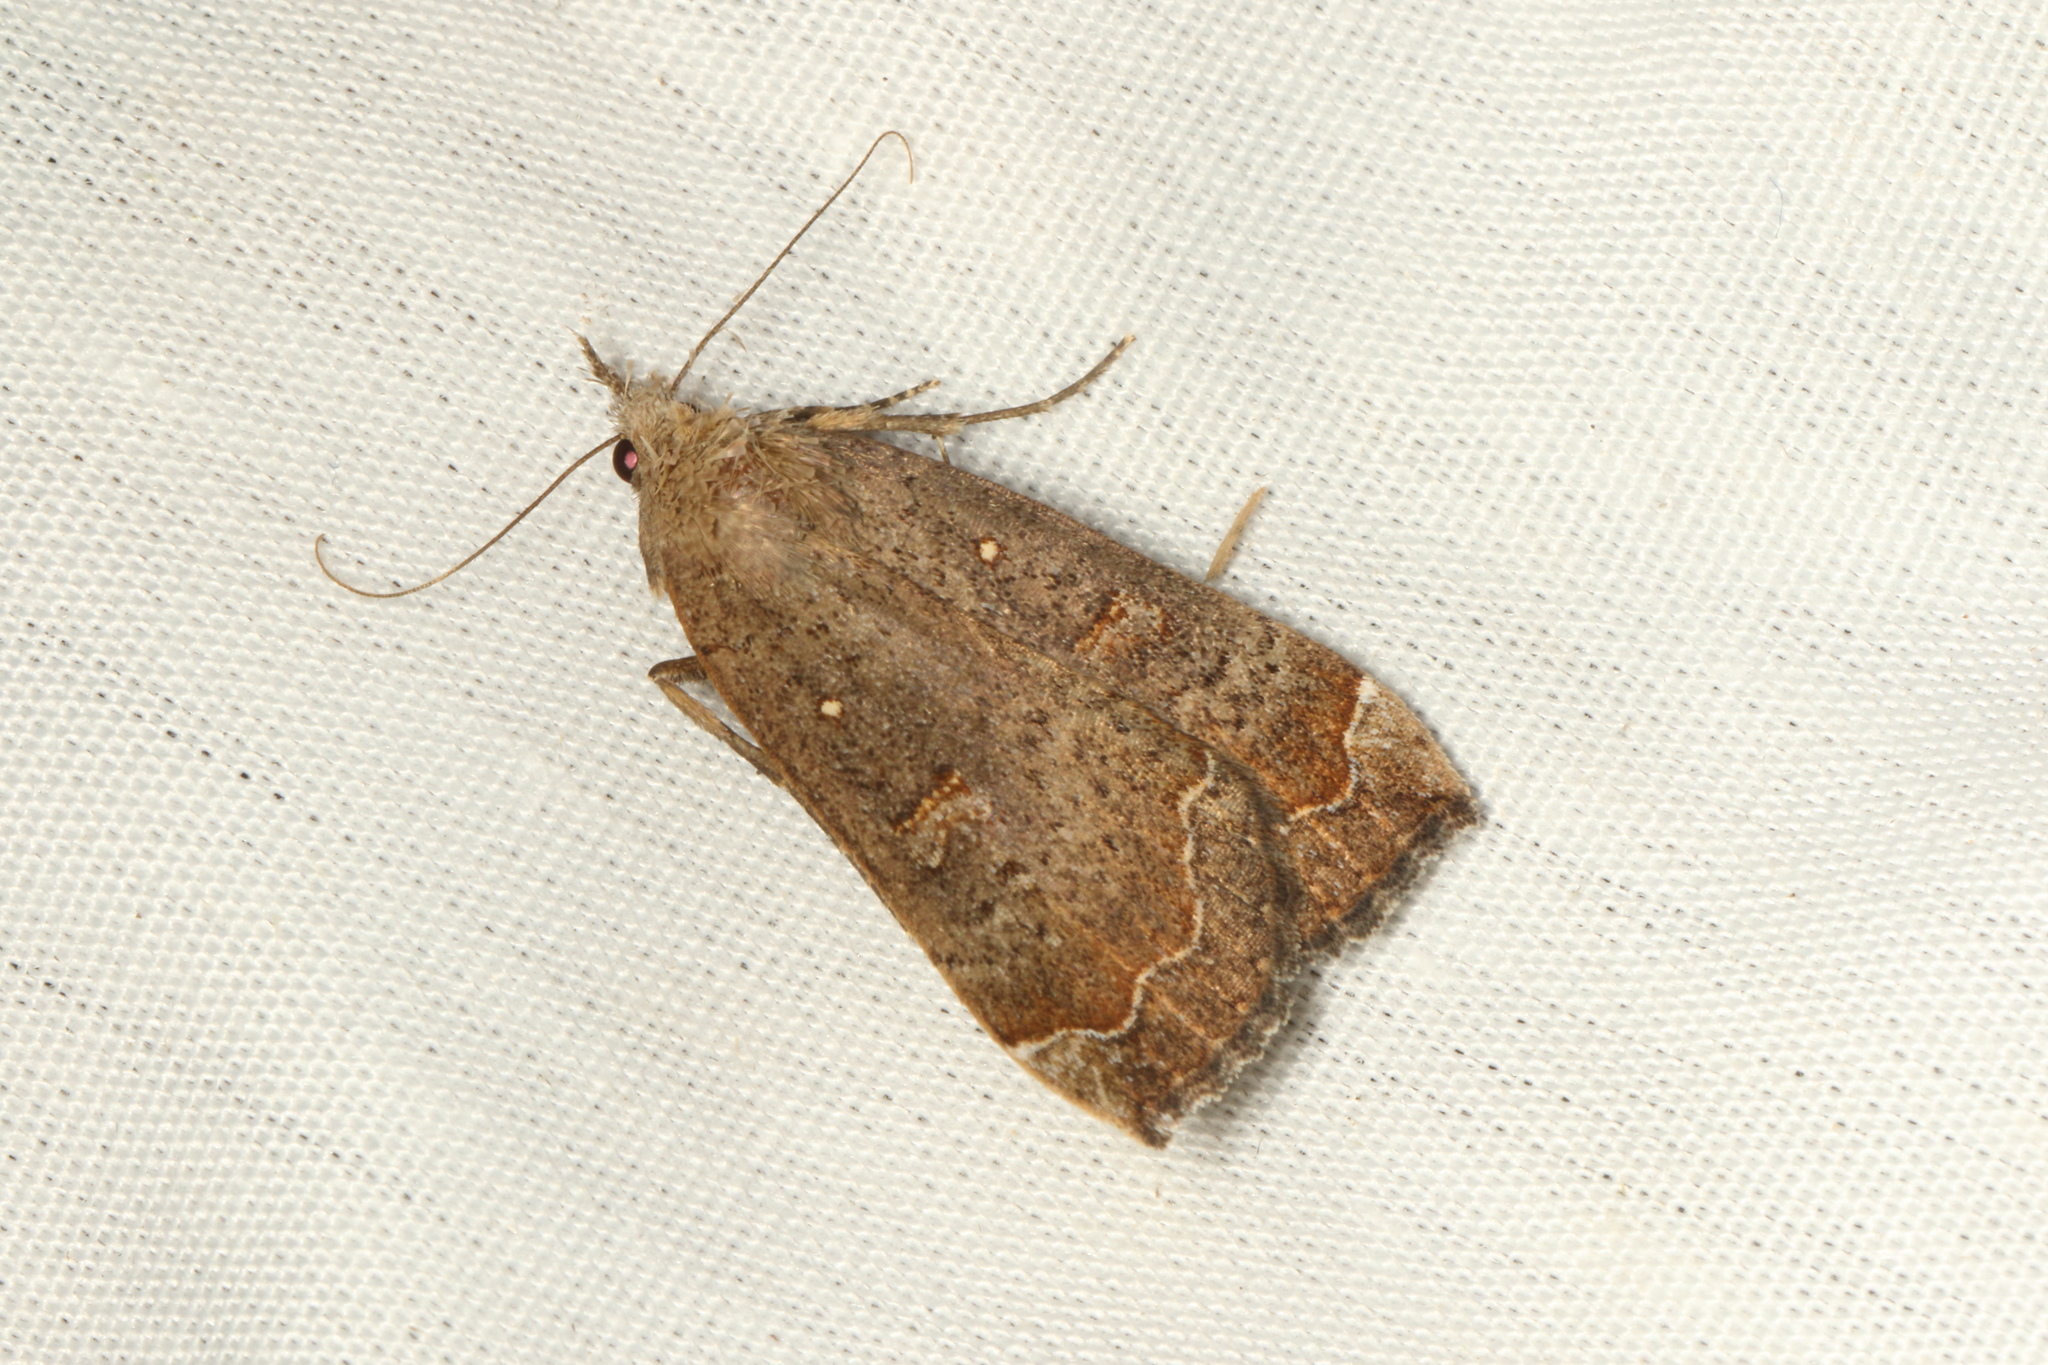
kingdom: Animalia
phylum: Arthropoda
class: Insecta
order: Lepidoptera
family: Erebidae
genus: Rhapsa
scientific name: Rhapsa scotosialis
